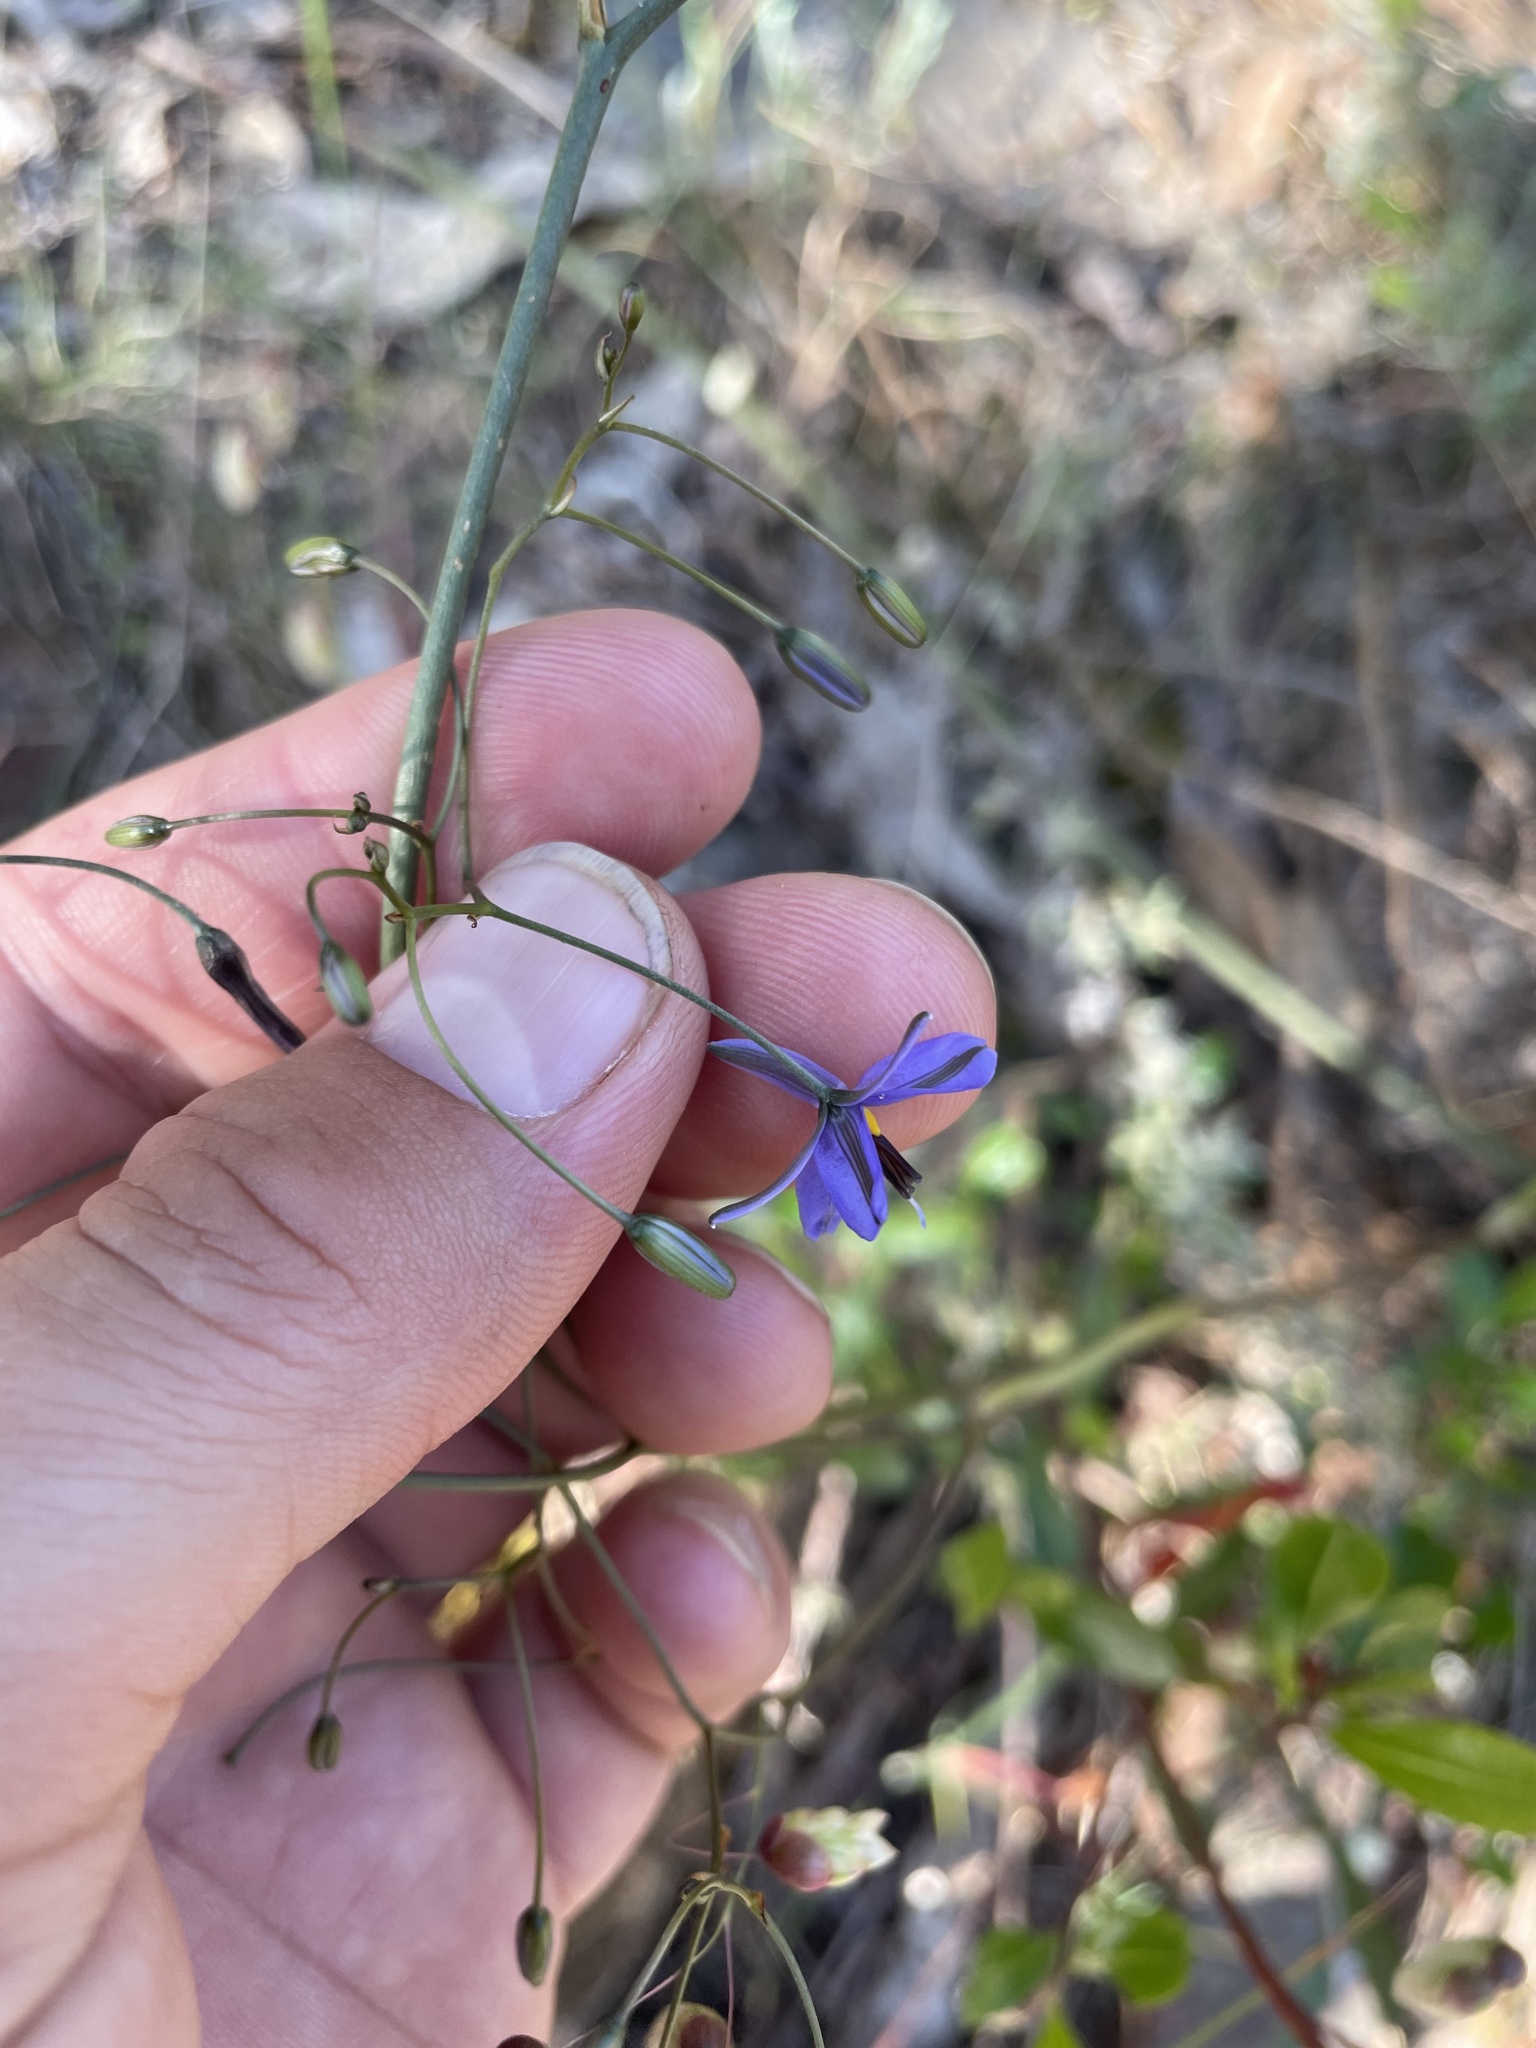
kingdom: Plantae
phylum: Tracheophyta
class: Liliopsida
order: Asparagales
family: Asphodelaceae
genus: Dianella
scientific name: Dianella revoluta
